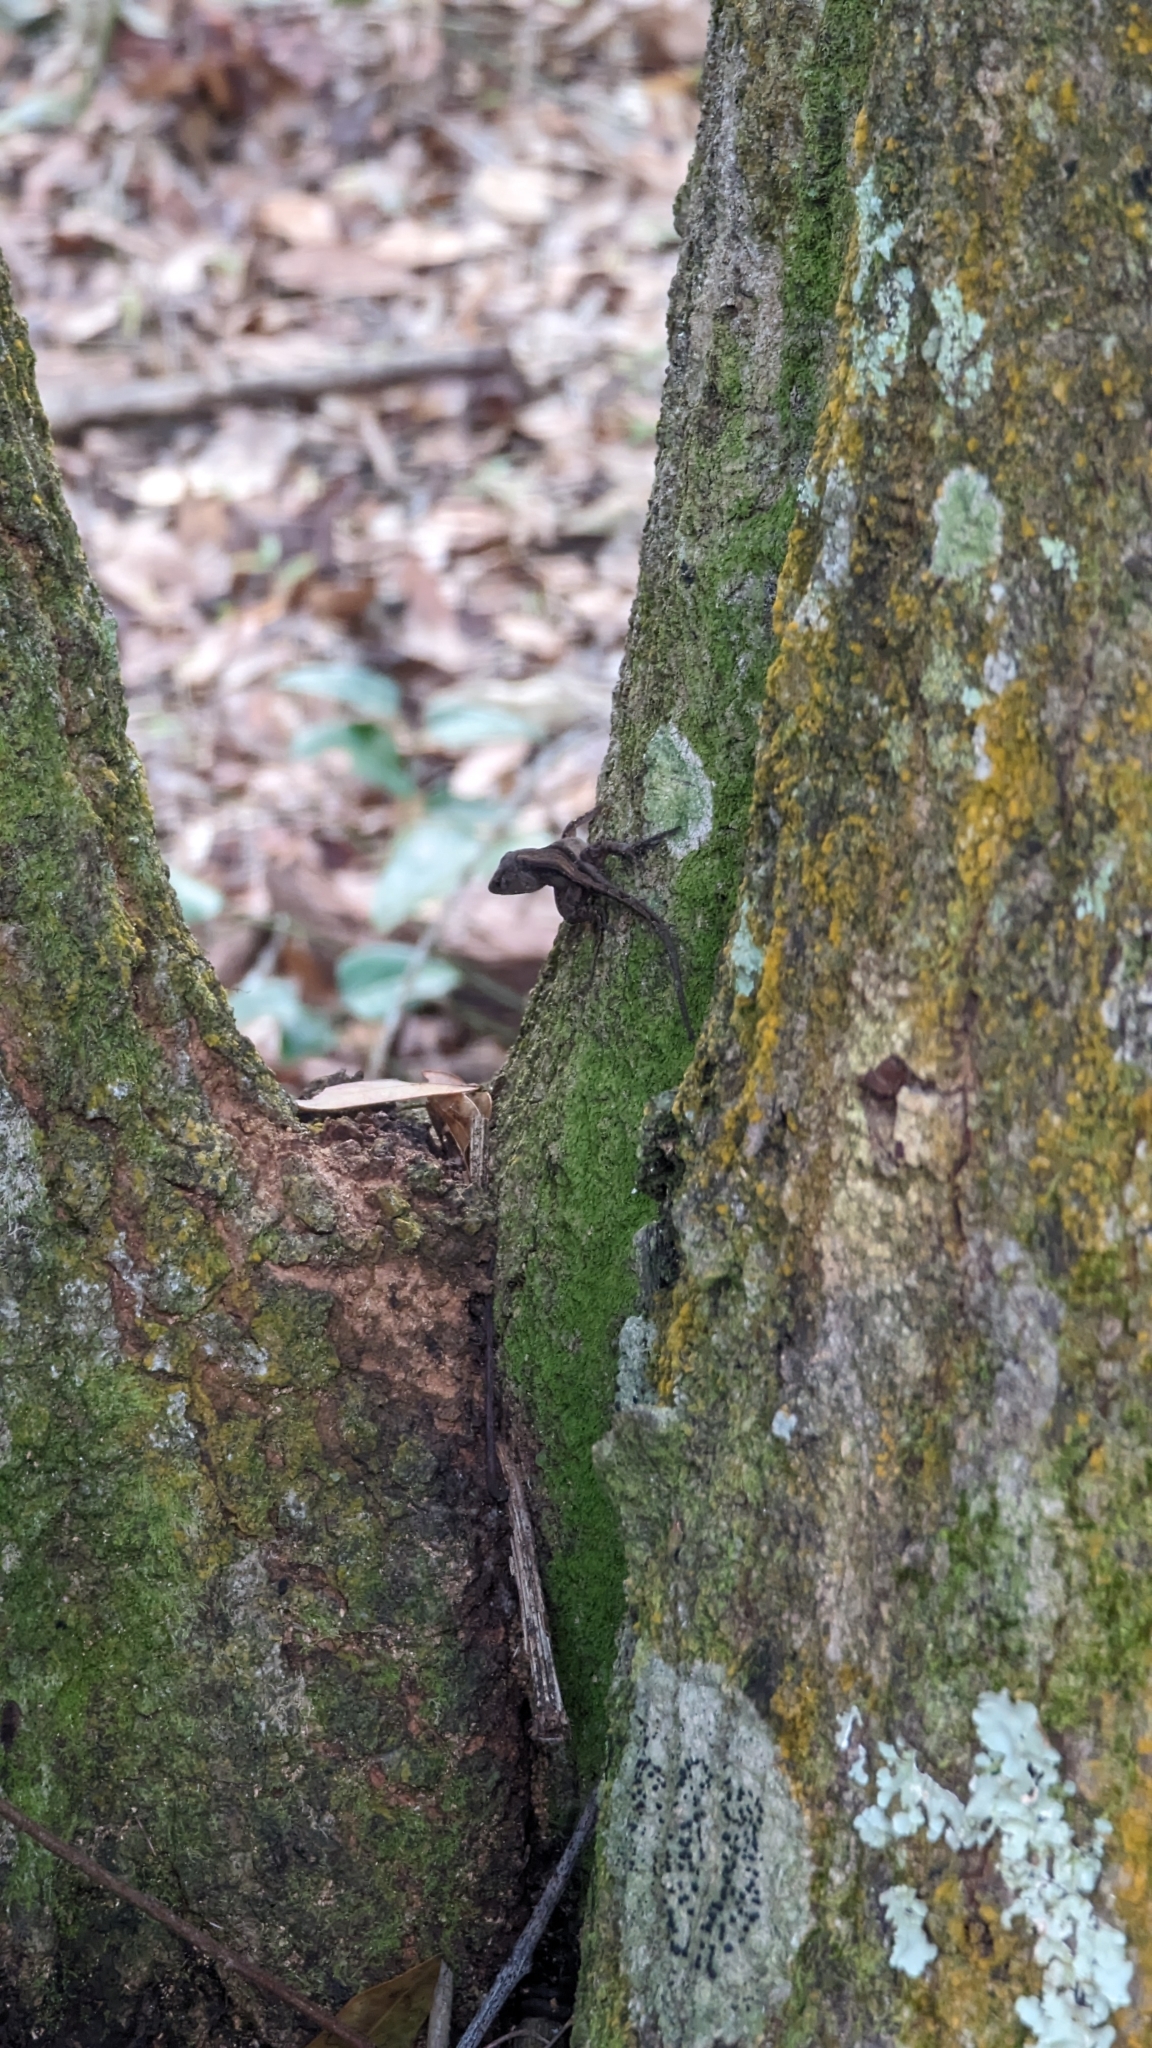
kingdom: Animalia
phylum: Chordata
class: Squamata
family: Dactyloidae
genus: Anolis
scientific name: Anolis sagrei
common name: Brown anole
